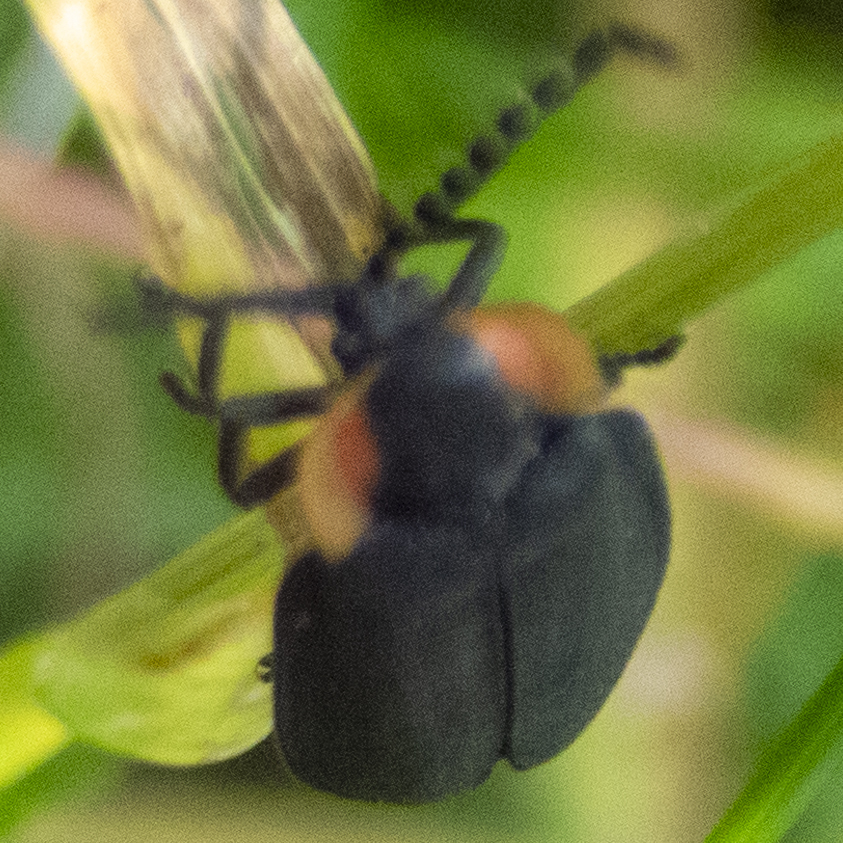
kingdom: Animalia
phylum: Arthropoda
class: Insecta
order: Coleoptera
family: Lampyridae
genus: Lucidota
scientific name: Lucidota atra
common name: Black firefly
